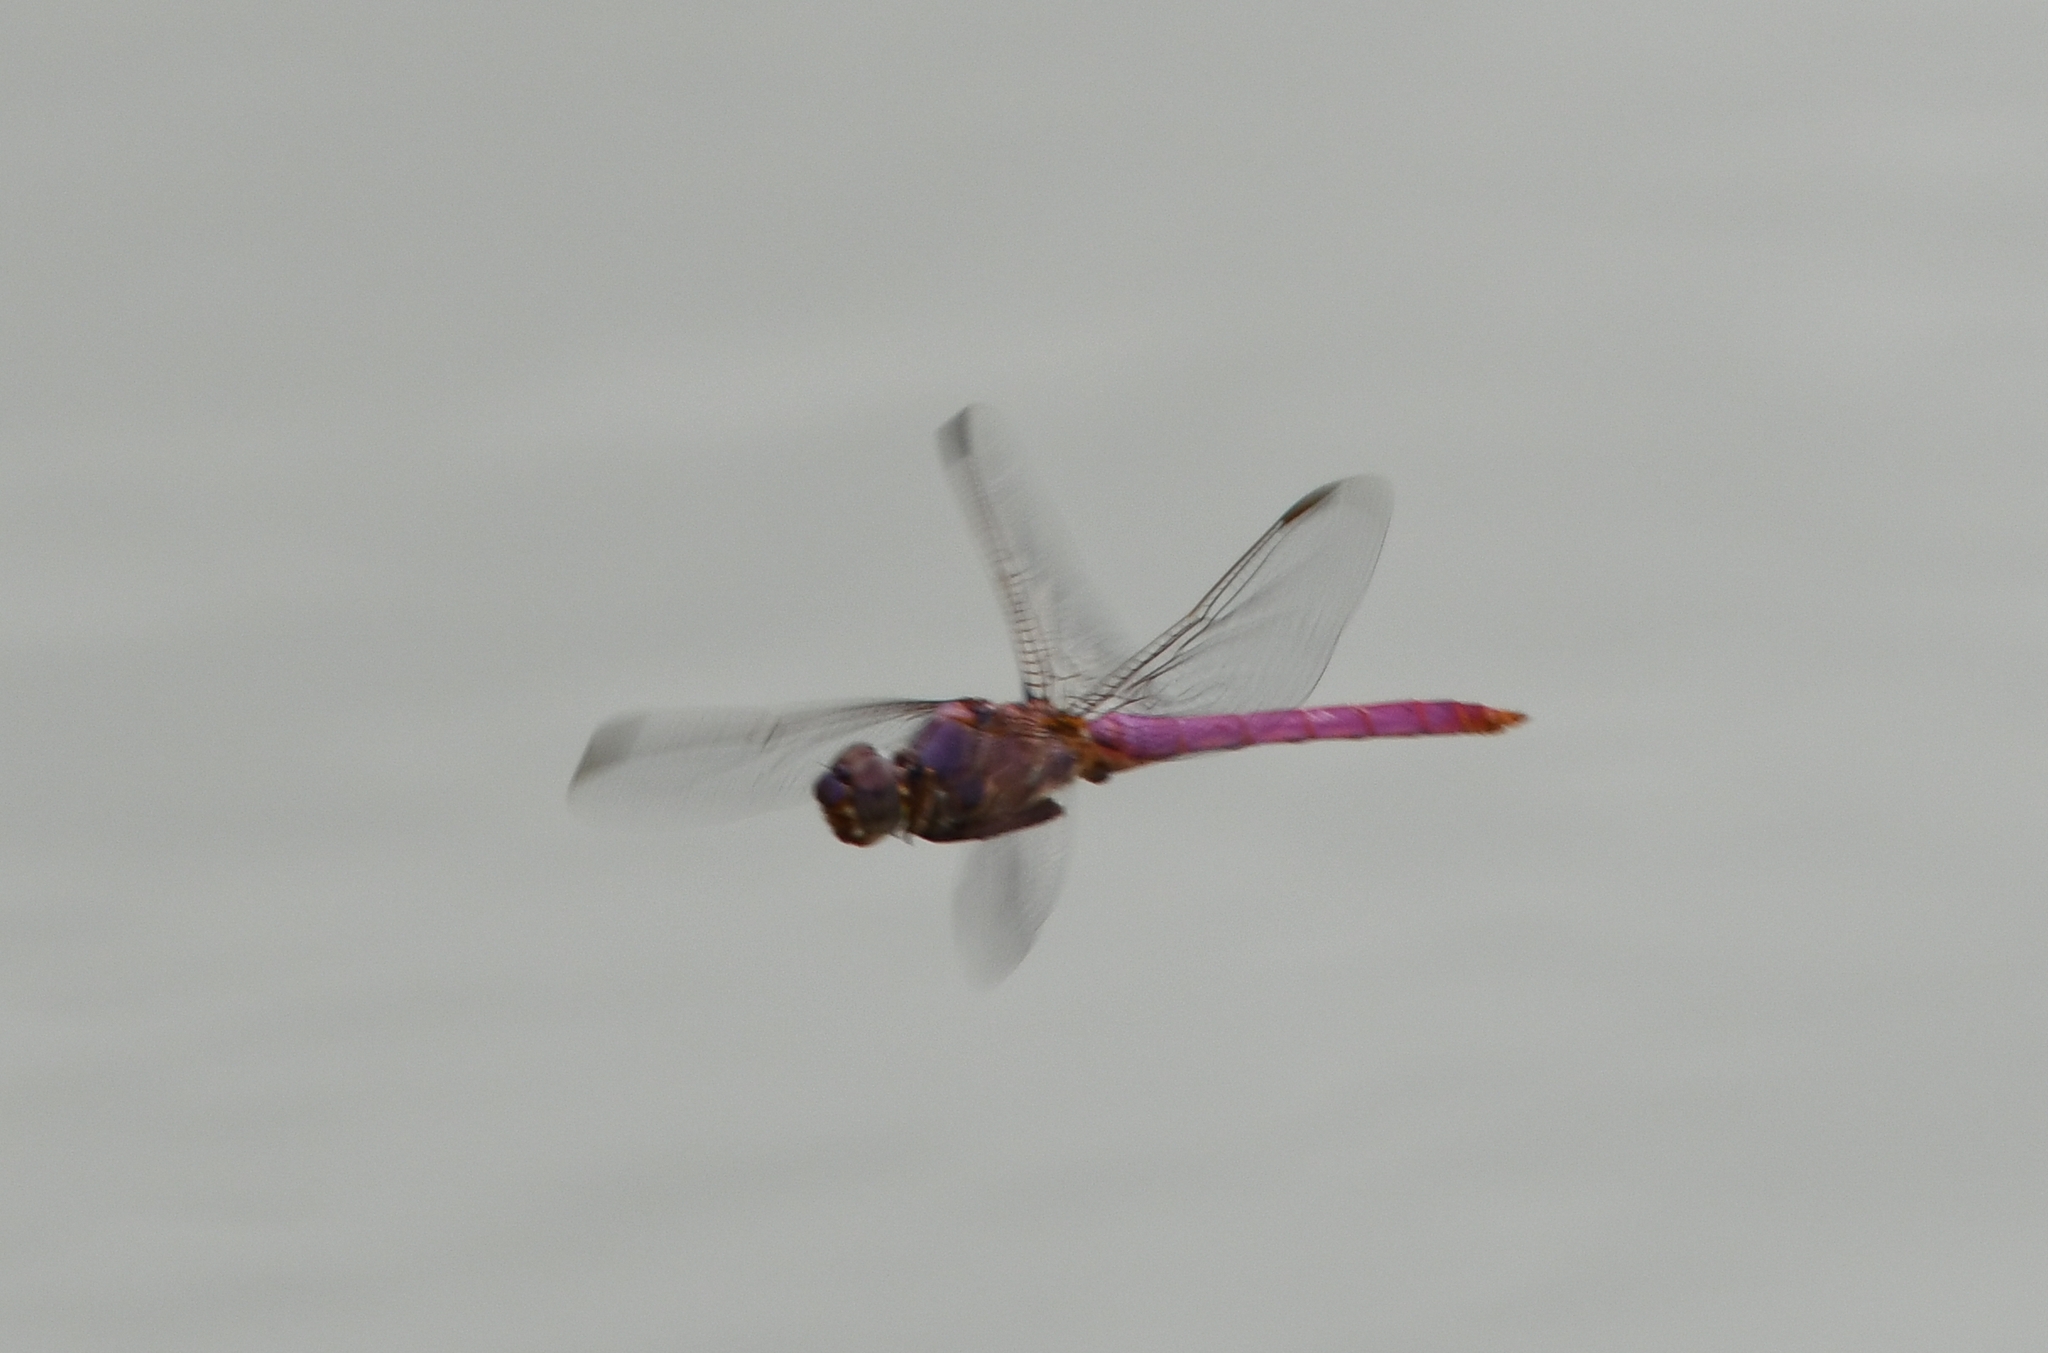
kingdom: Animalia
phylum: Arthropoda
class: Insecta
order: Odonata
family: Libellulidae
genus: Orthemis
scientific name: Orthemis ferruginea
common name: Roseate skimmer
